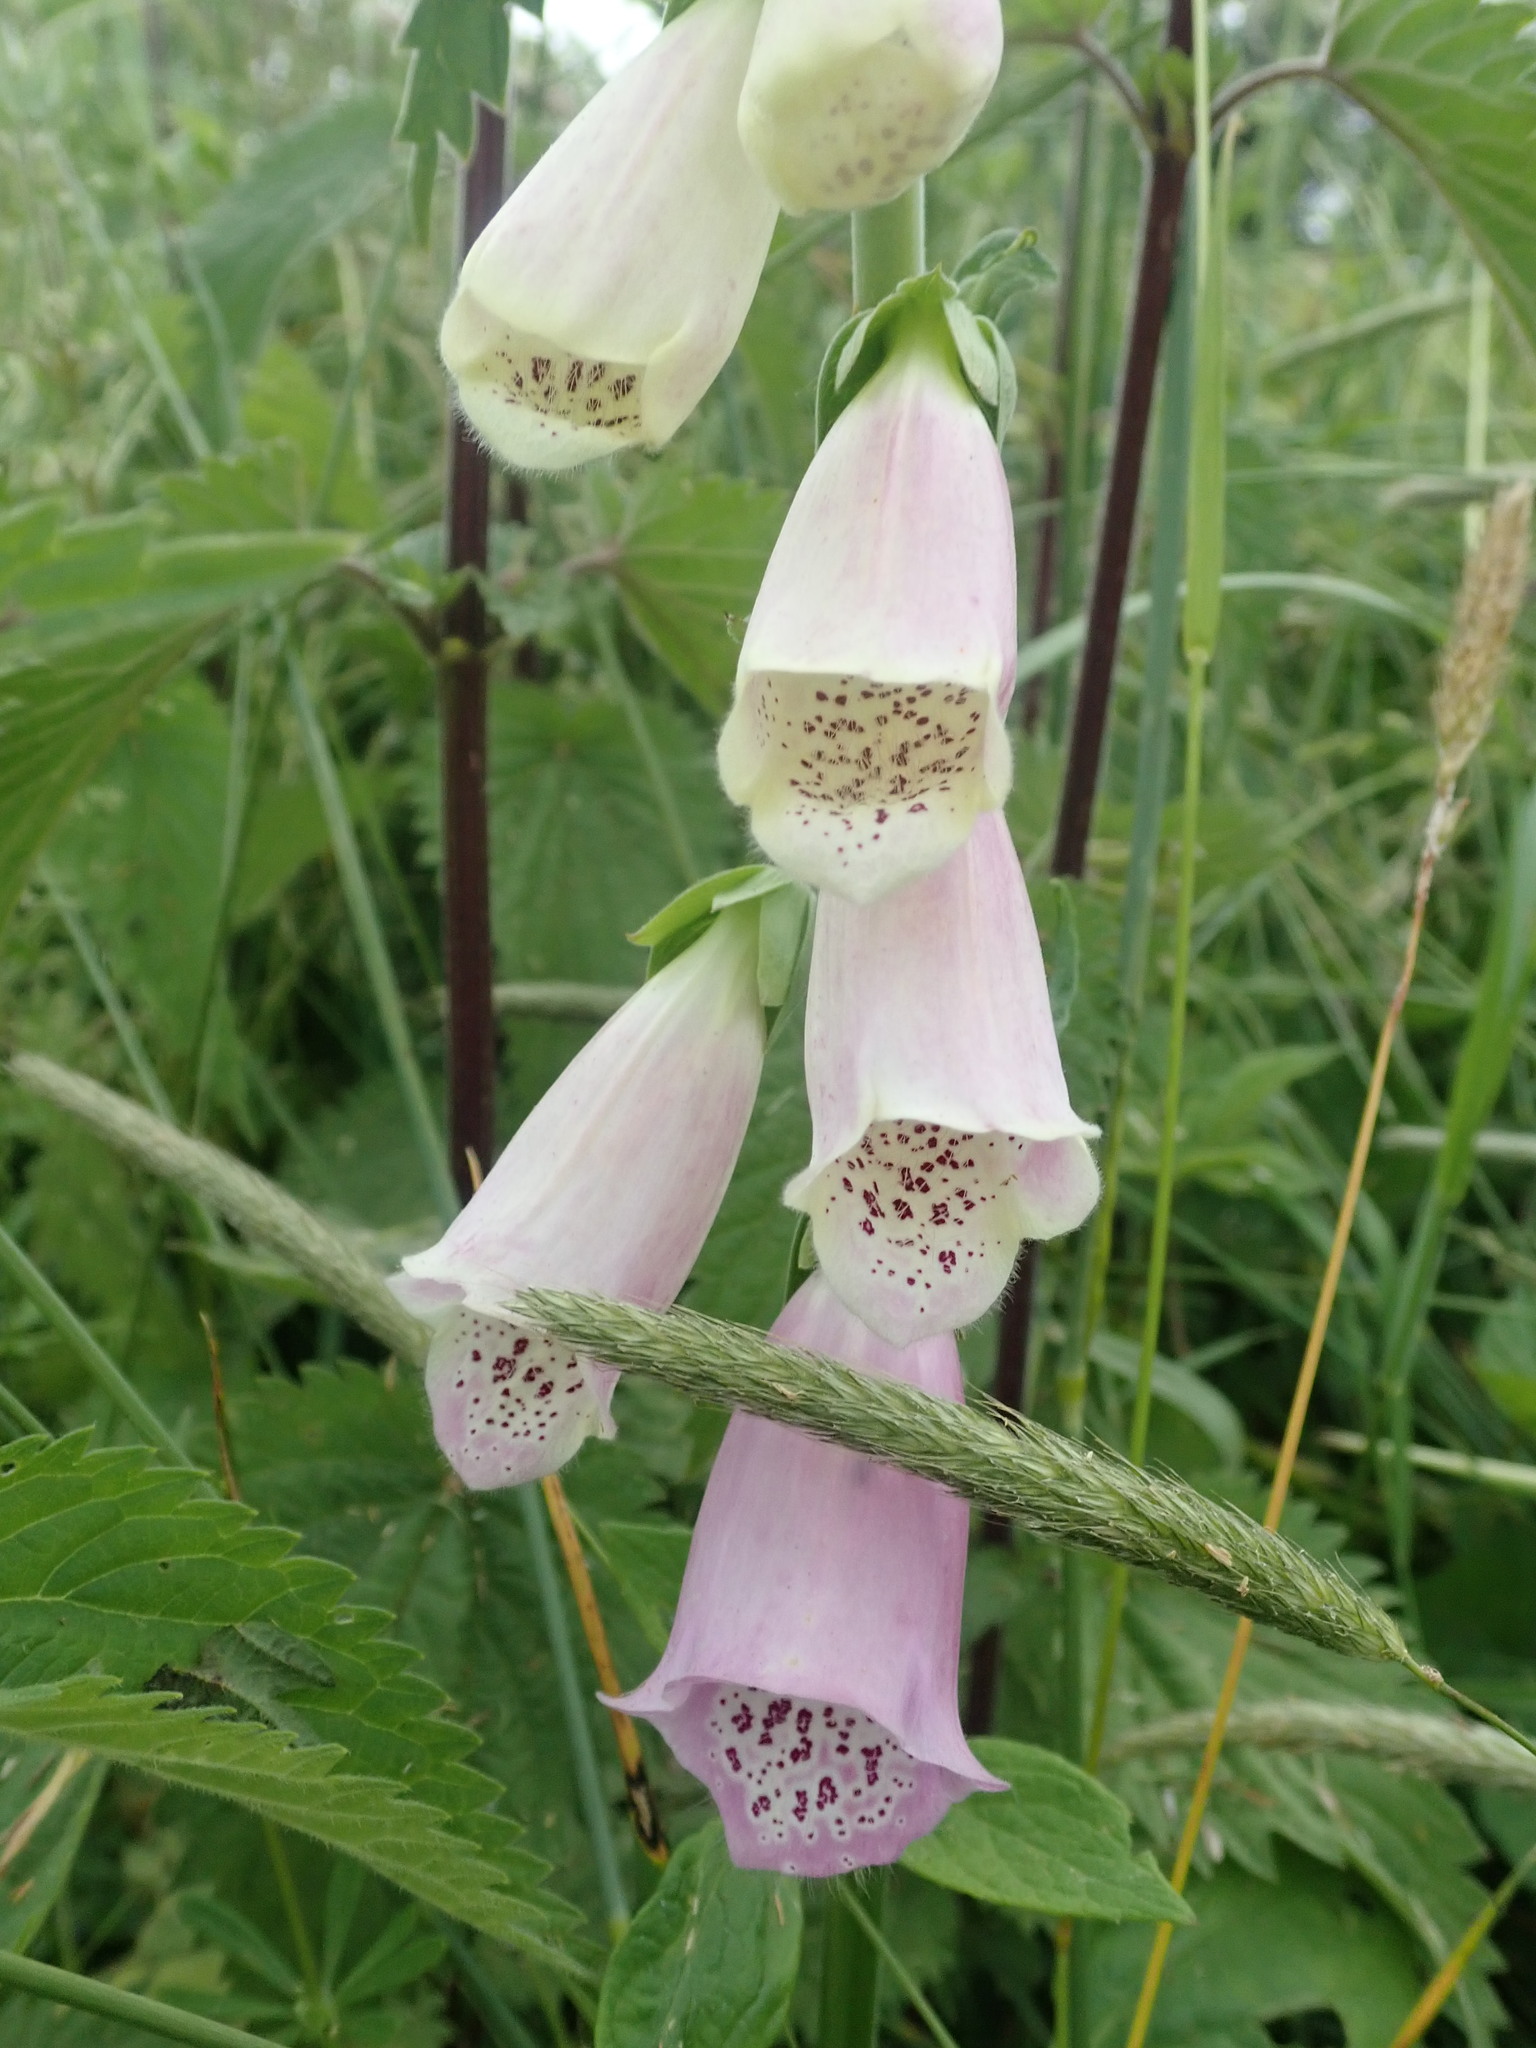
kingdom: Plantae
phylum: Tracheophyta
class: Magnoliopsida
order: Lamiales
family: Plantaginaceae
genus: Digitalis
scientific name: Digitalis purpurea
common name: Foxglove
